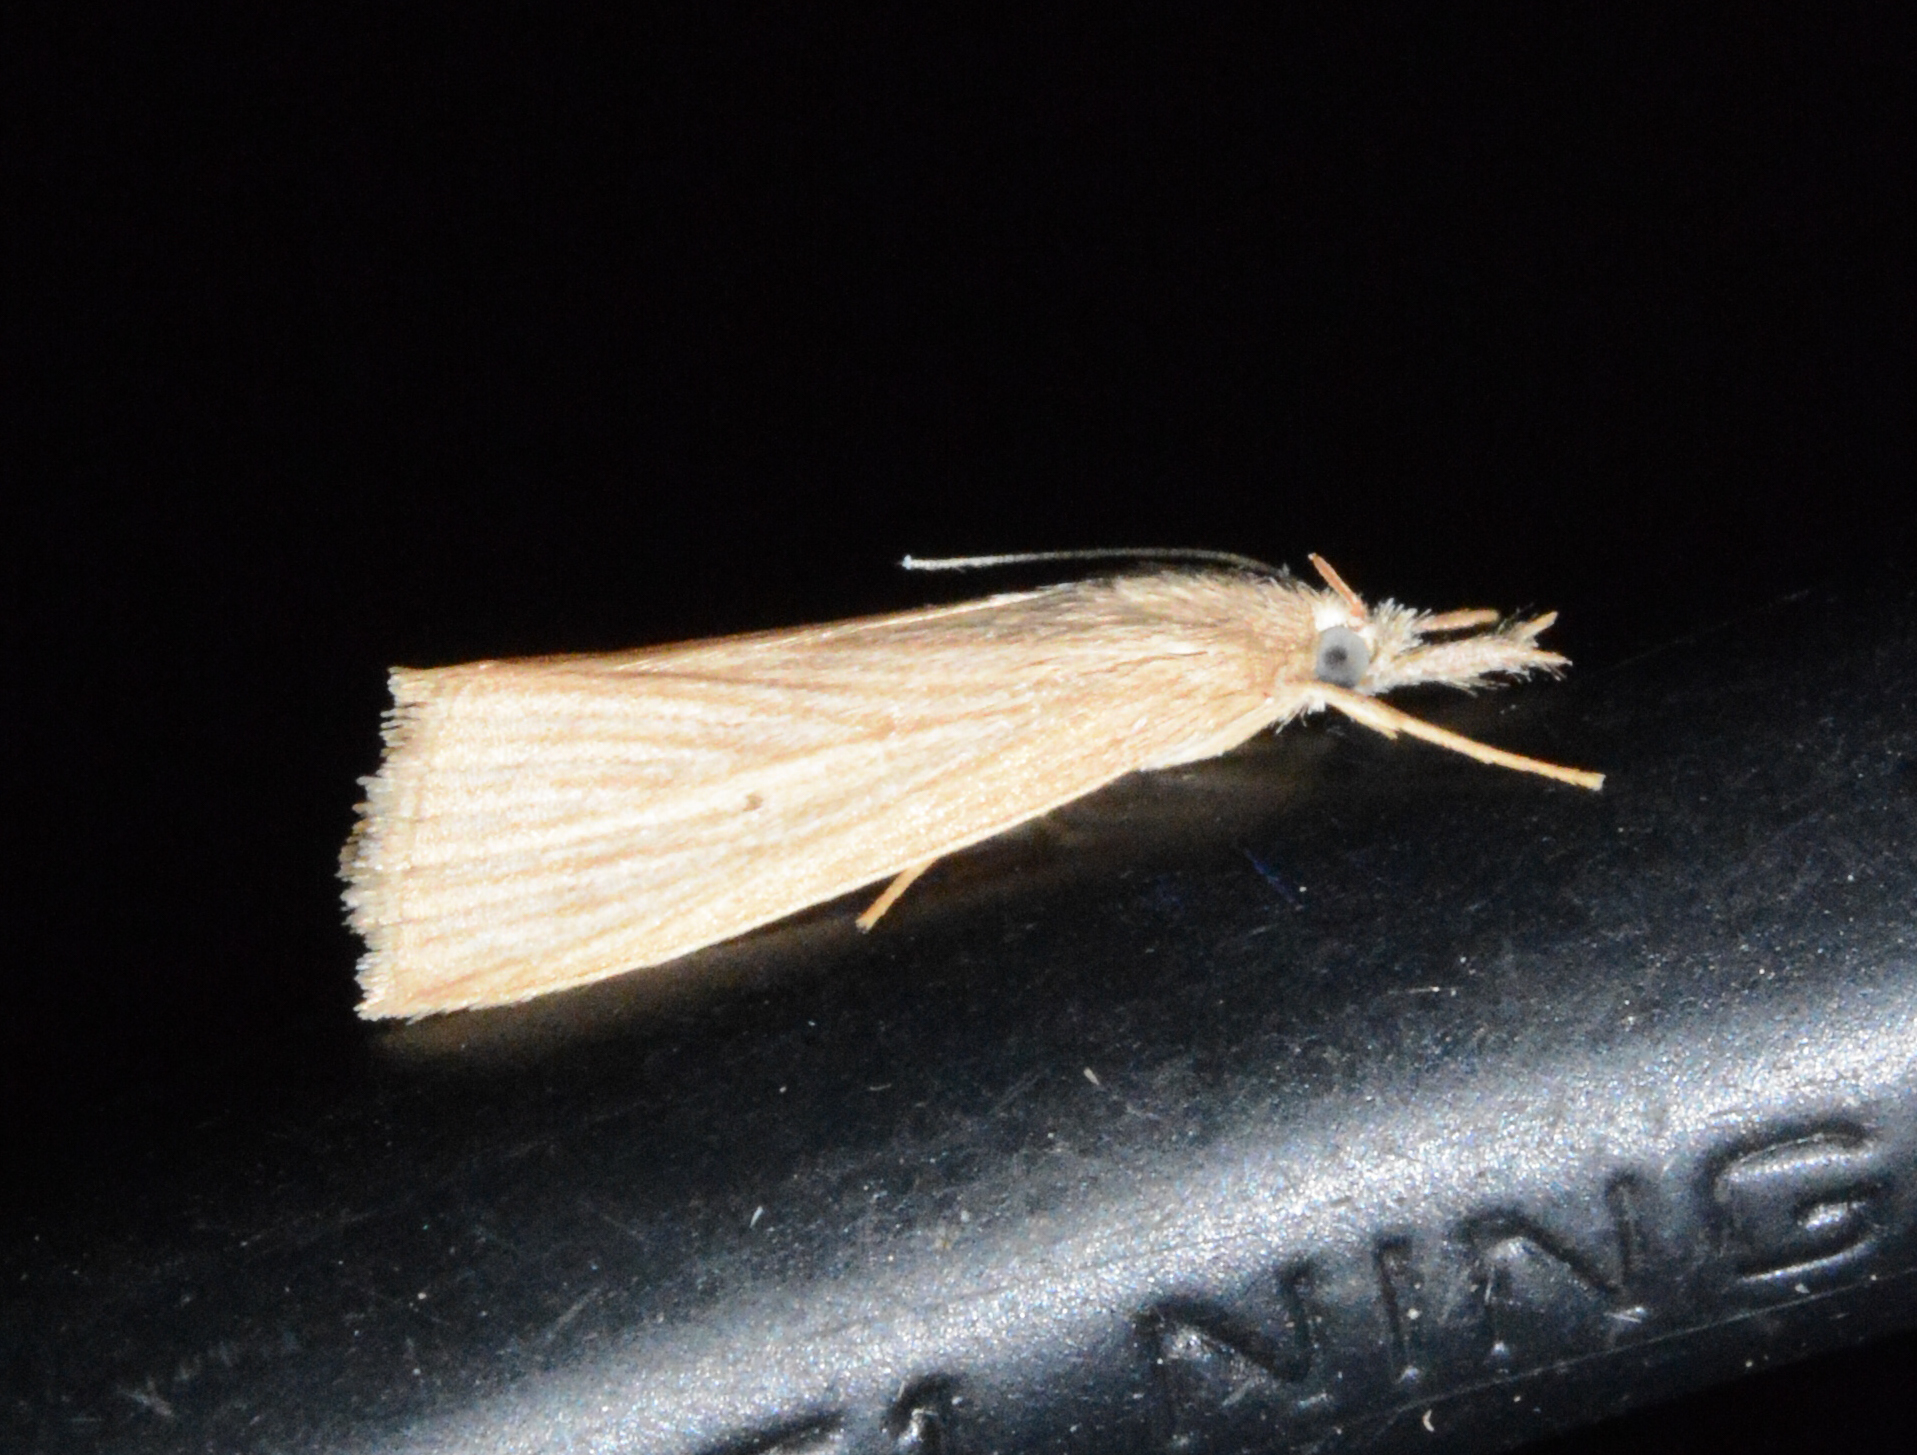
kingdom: Animalia
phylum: Arthropoda
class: Insecta
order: Lepidoptera
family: Crambidae
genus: Diatraea
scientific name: Diatraea evanescens
